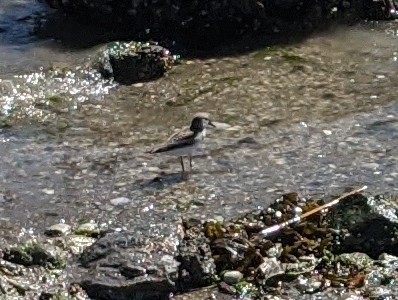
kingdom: Animalia
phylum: Chordata
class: Aves
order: Charadriiformes
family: Scolopacidae
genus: Calidris
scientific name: Calidris pusilla
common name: Semipalmated sandpiper
